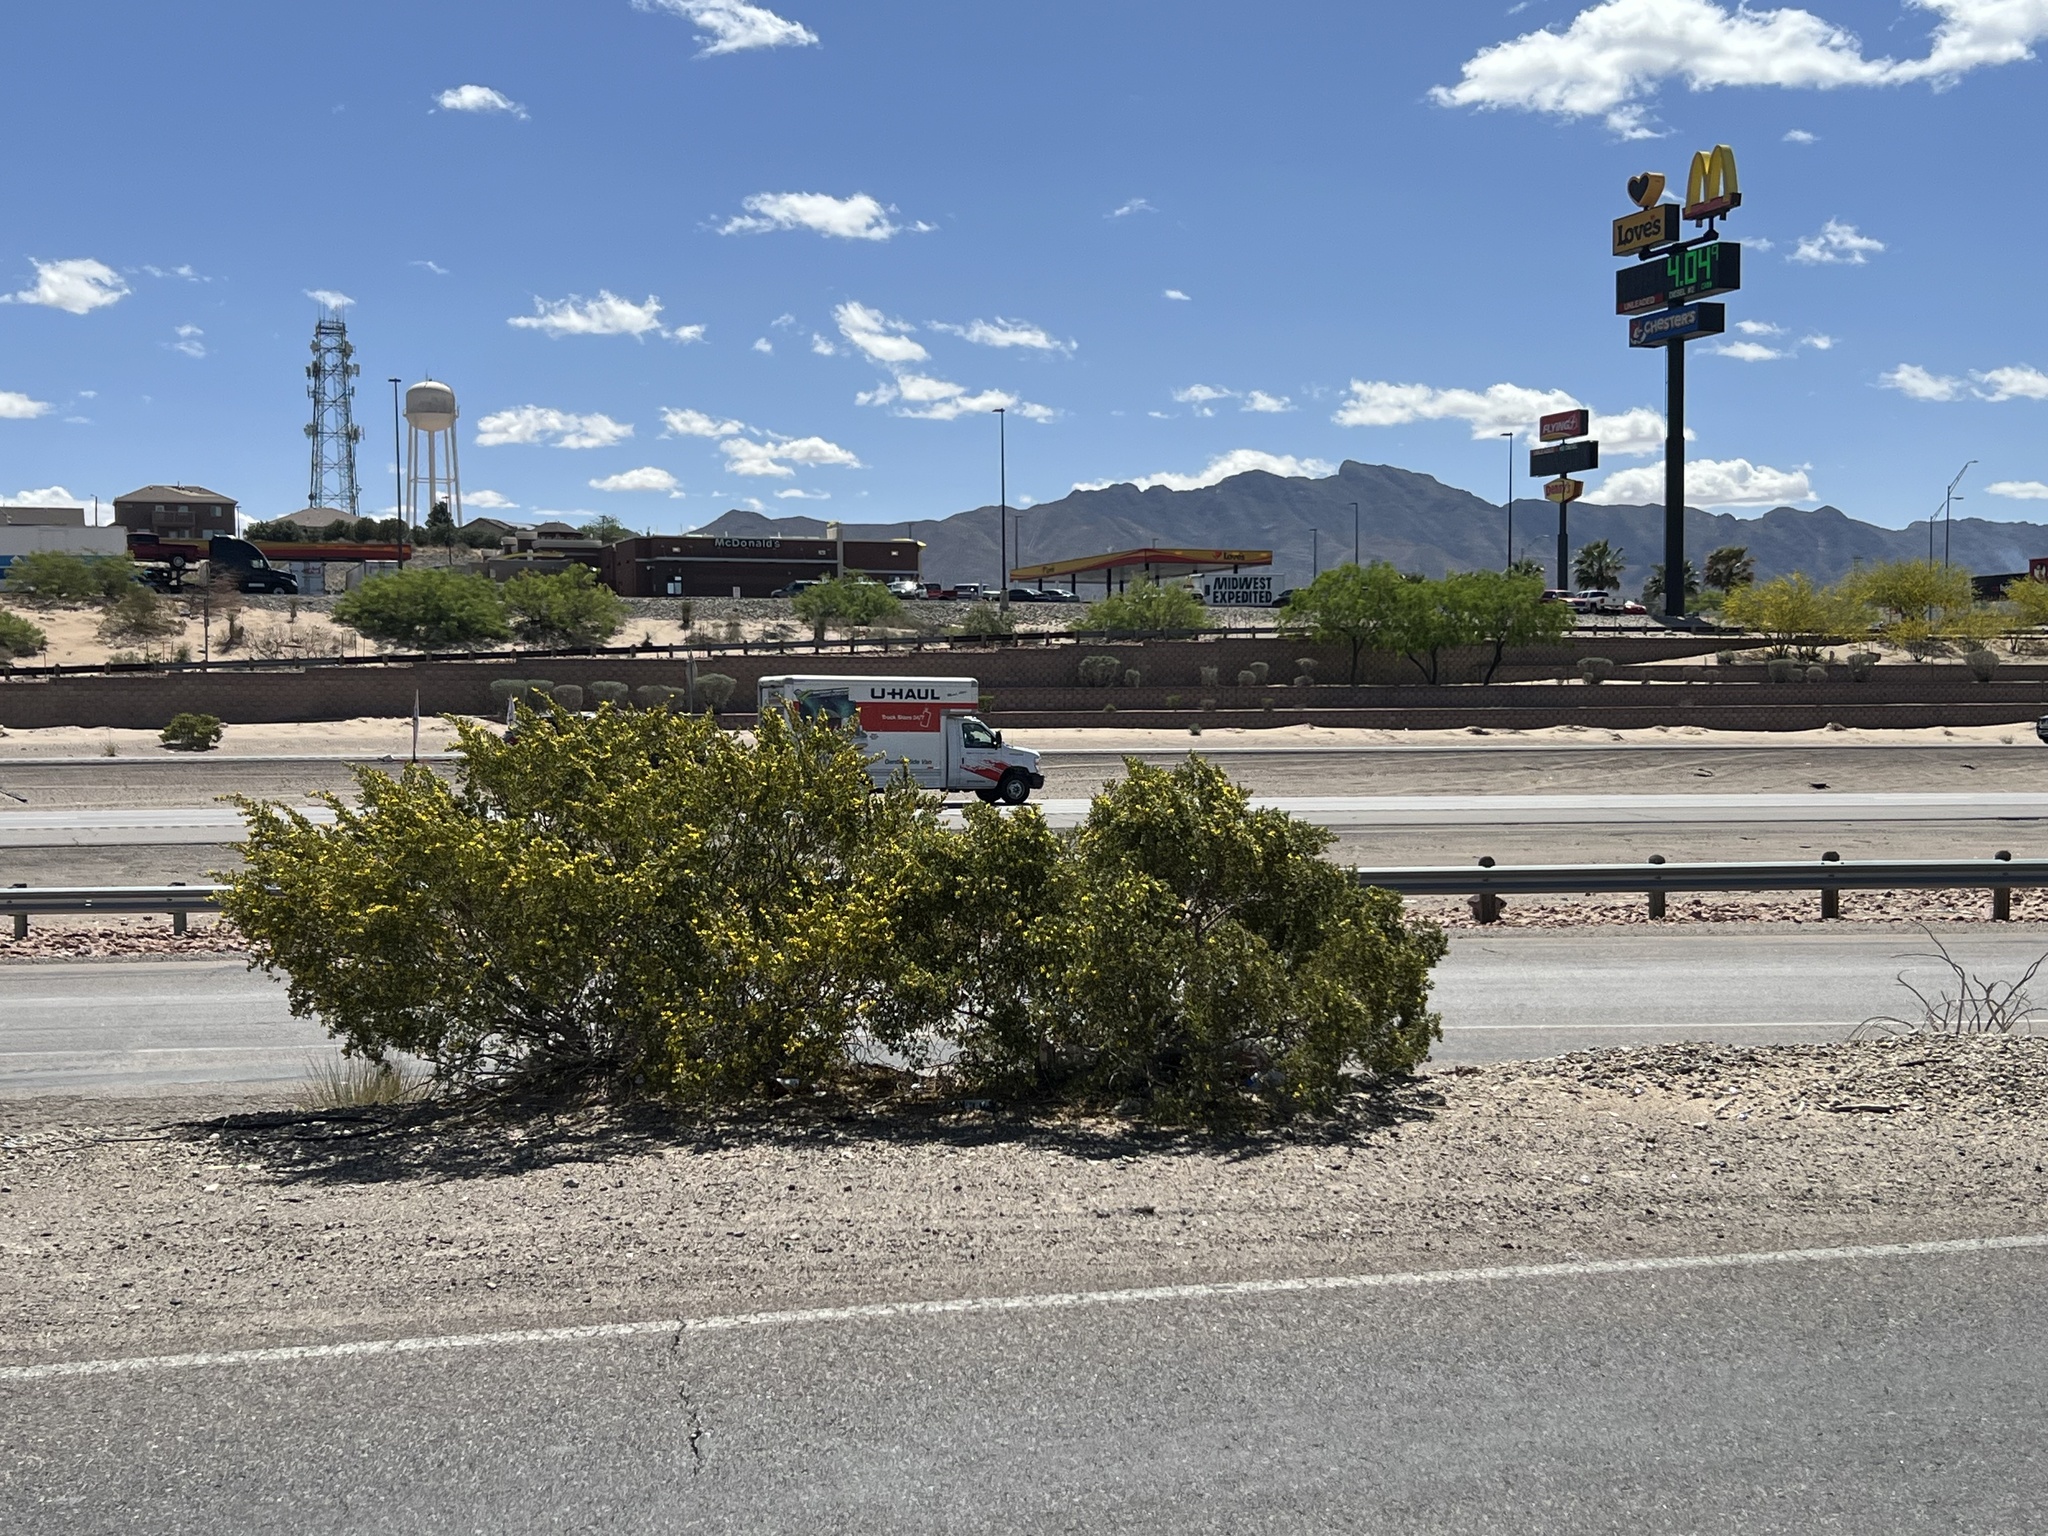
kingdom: Plantae
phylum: Tracheophyta
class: Magnoliopsida
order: Zygophyllales
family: Zygophyllaceae
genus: Larrea
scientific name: Larrea tridentata
